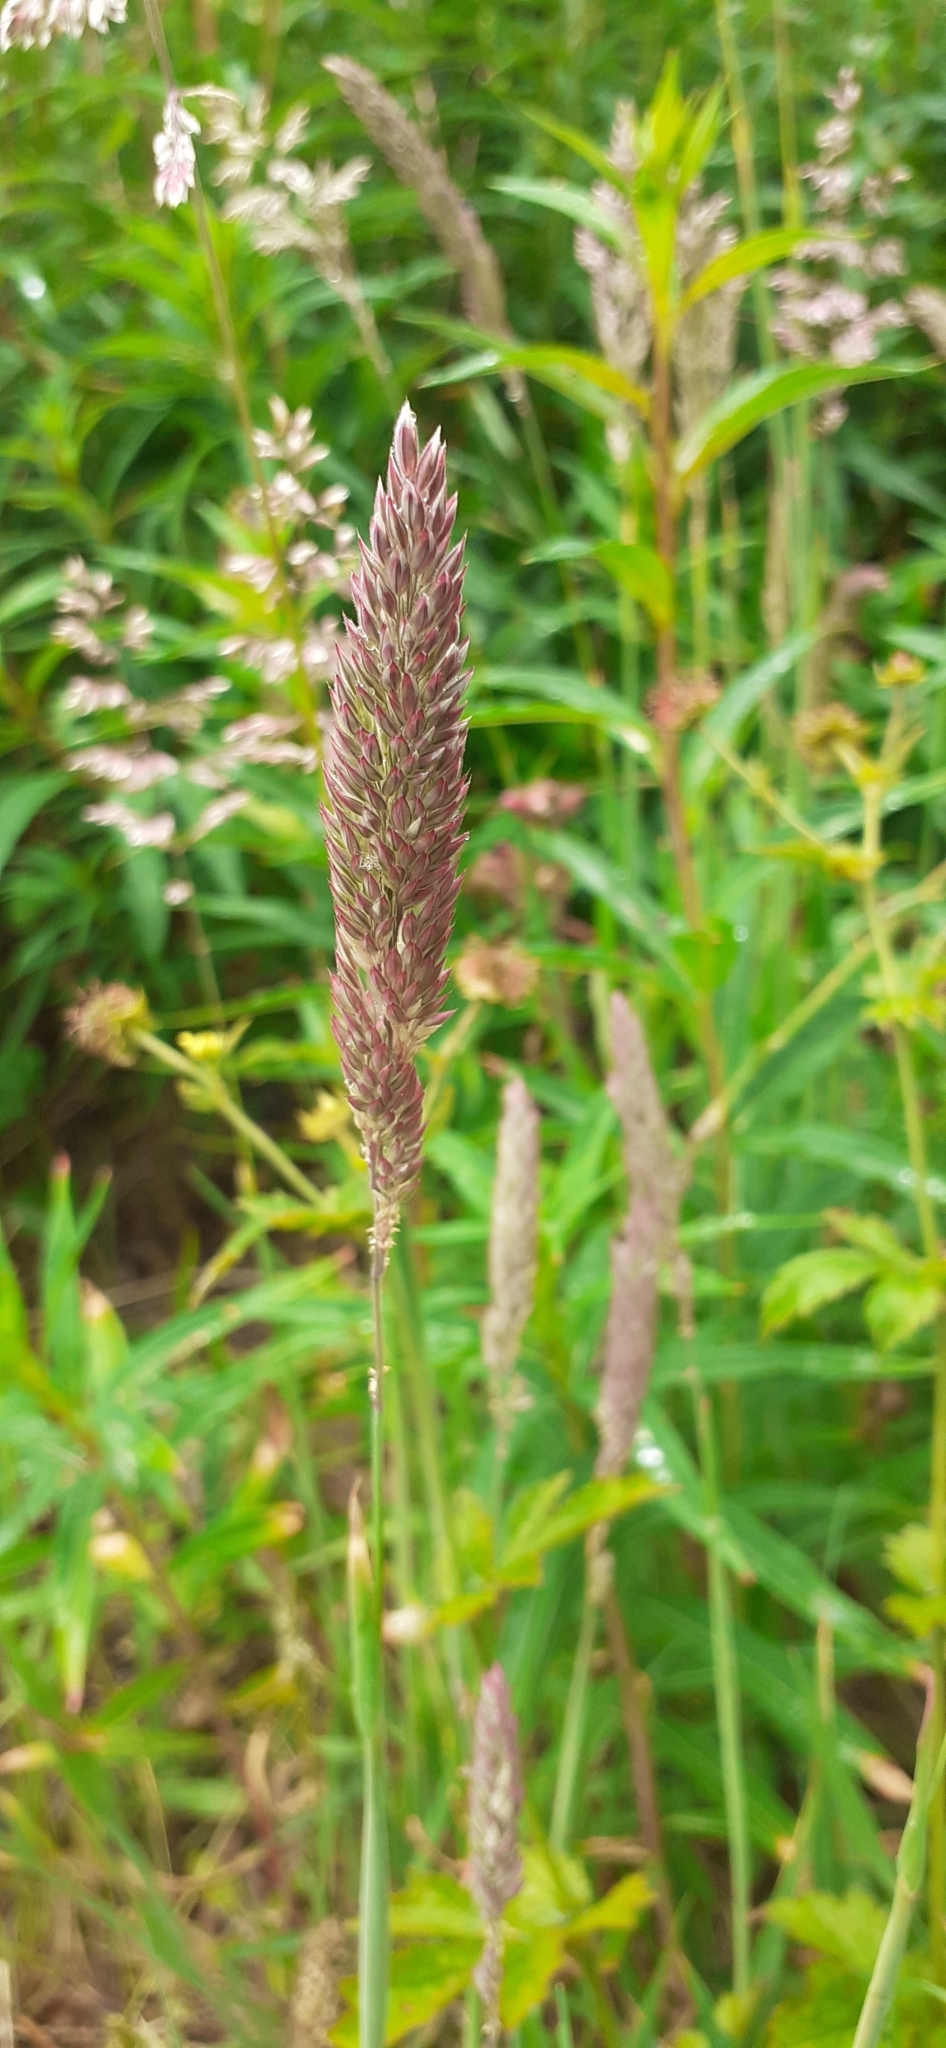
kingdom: Plantae
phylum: Tracheophyta
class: Liliopsida
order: Poales
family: Poaceae
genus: Holcus
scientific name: Holcus lanatus
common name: Yorkshire-fog
